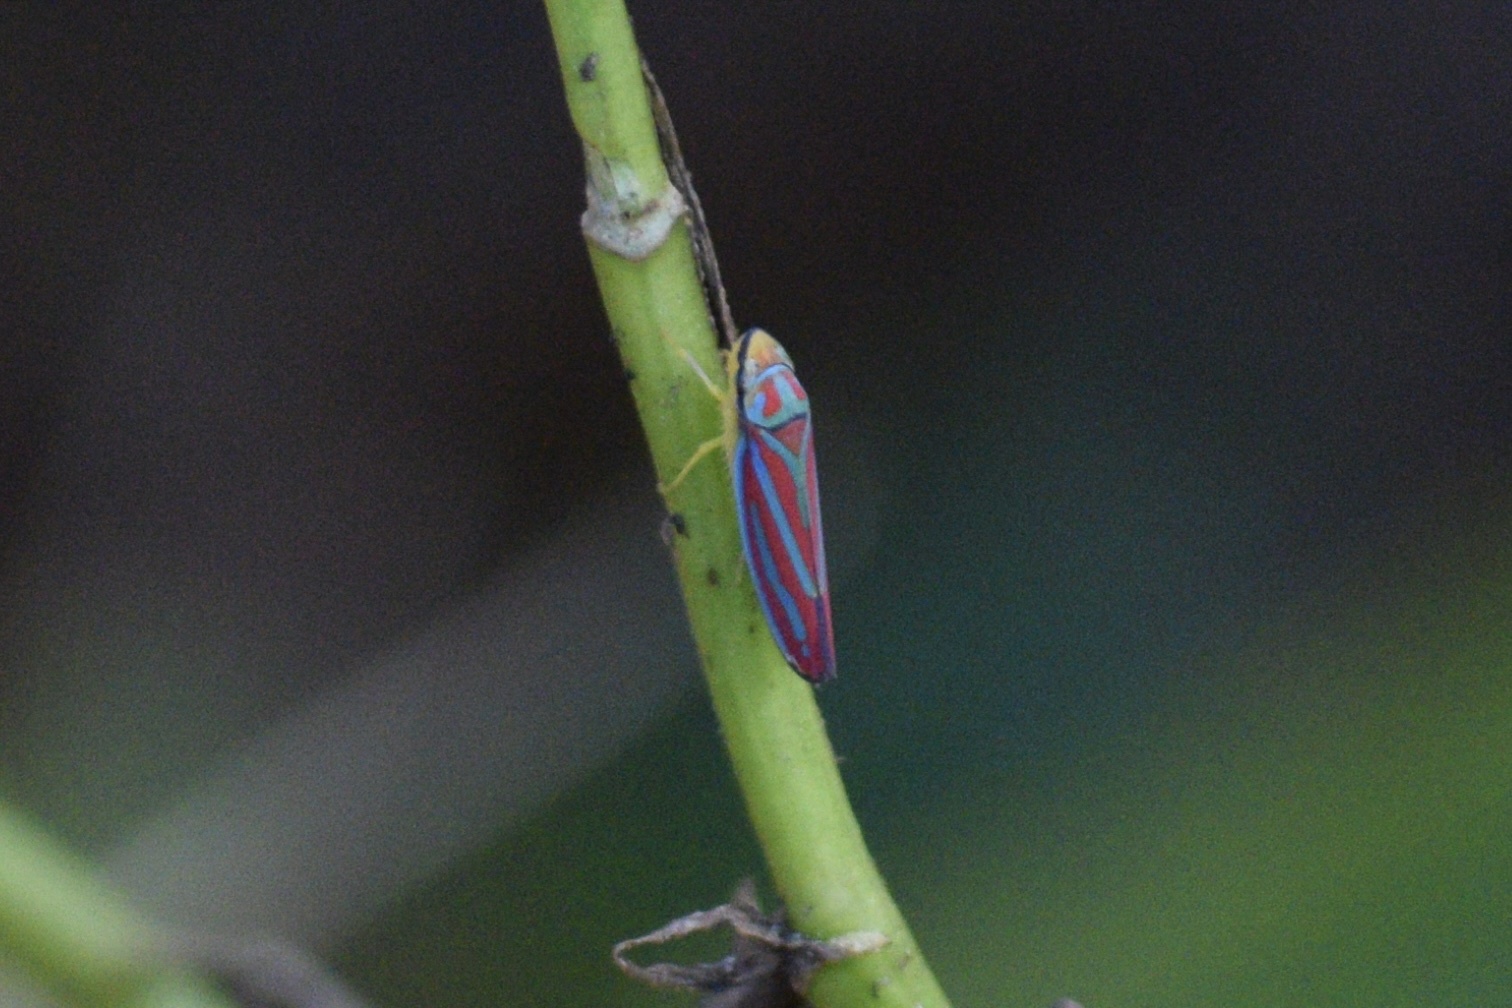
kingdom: Animalia
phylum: Arthropoda
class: Insecta
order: Hemiptera
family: Cicadellidae
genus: Graphocephala
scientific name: Graphocephala coccinea
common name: Candy-striped leafhopper
